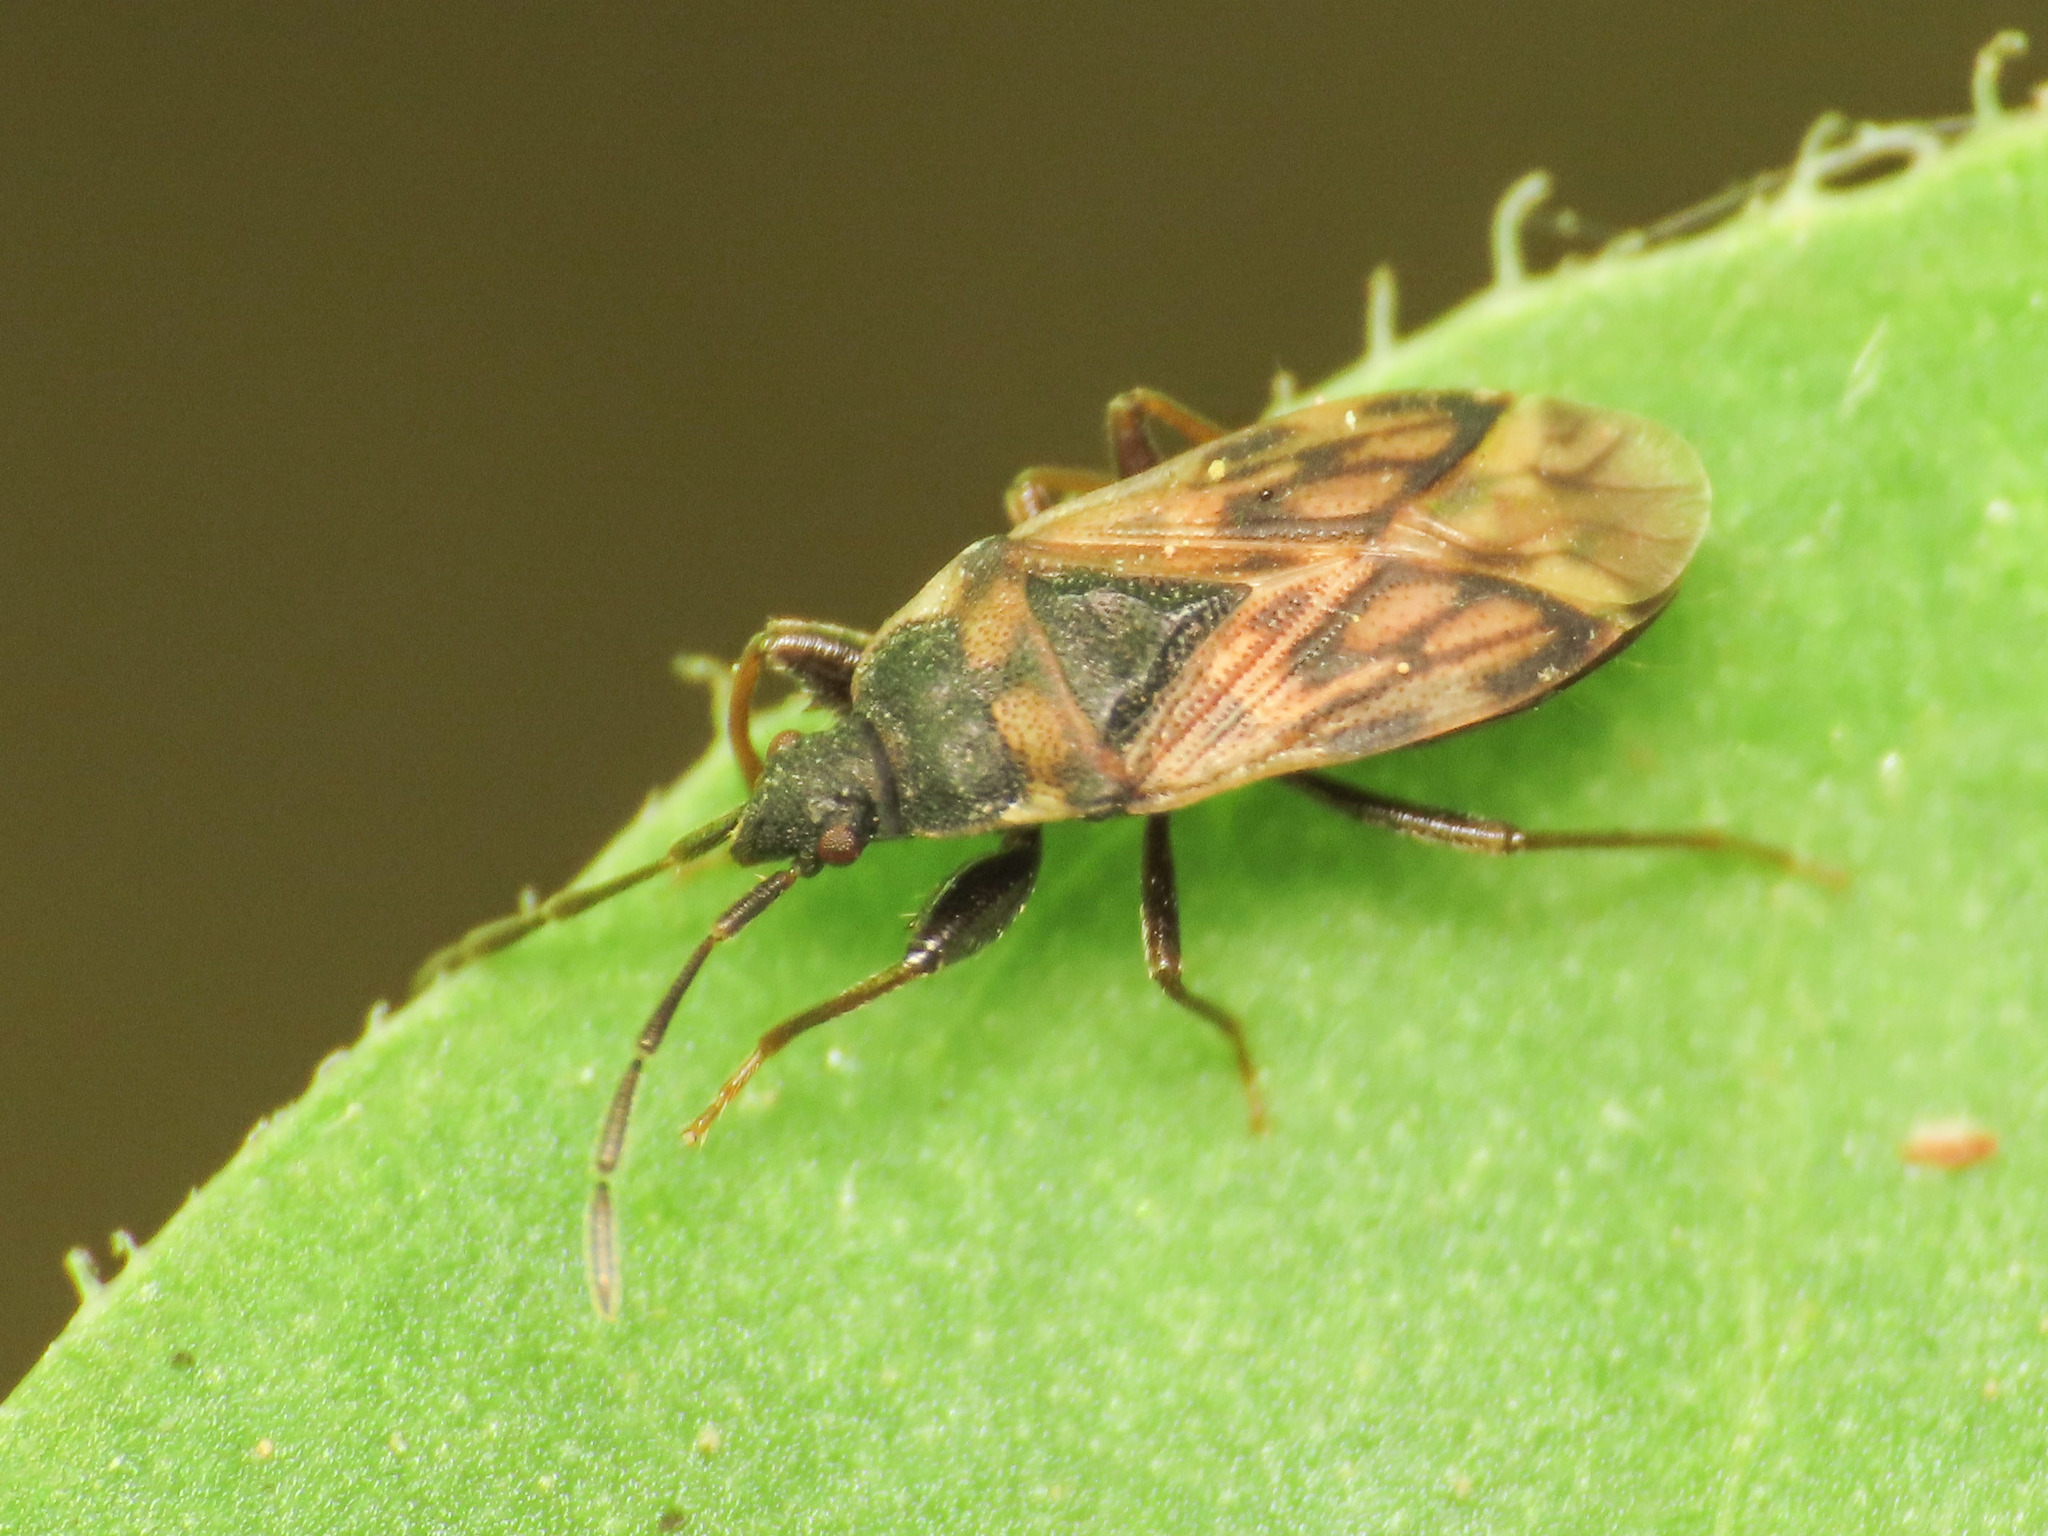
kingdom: Animalia
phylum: Arthropoda
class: Insecta
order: Hemiptera
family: Rhyparochromidae
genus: Taphropeltus
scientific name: Taphropeltus nervosus
